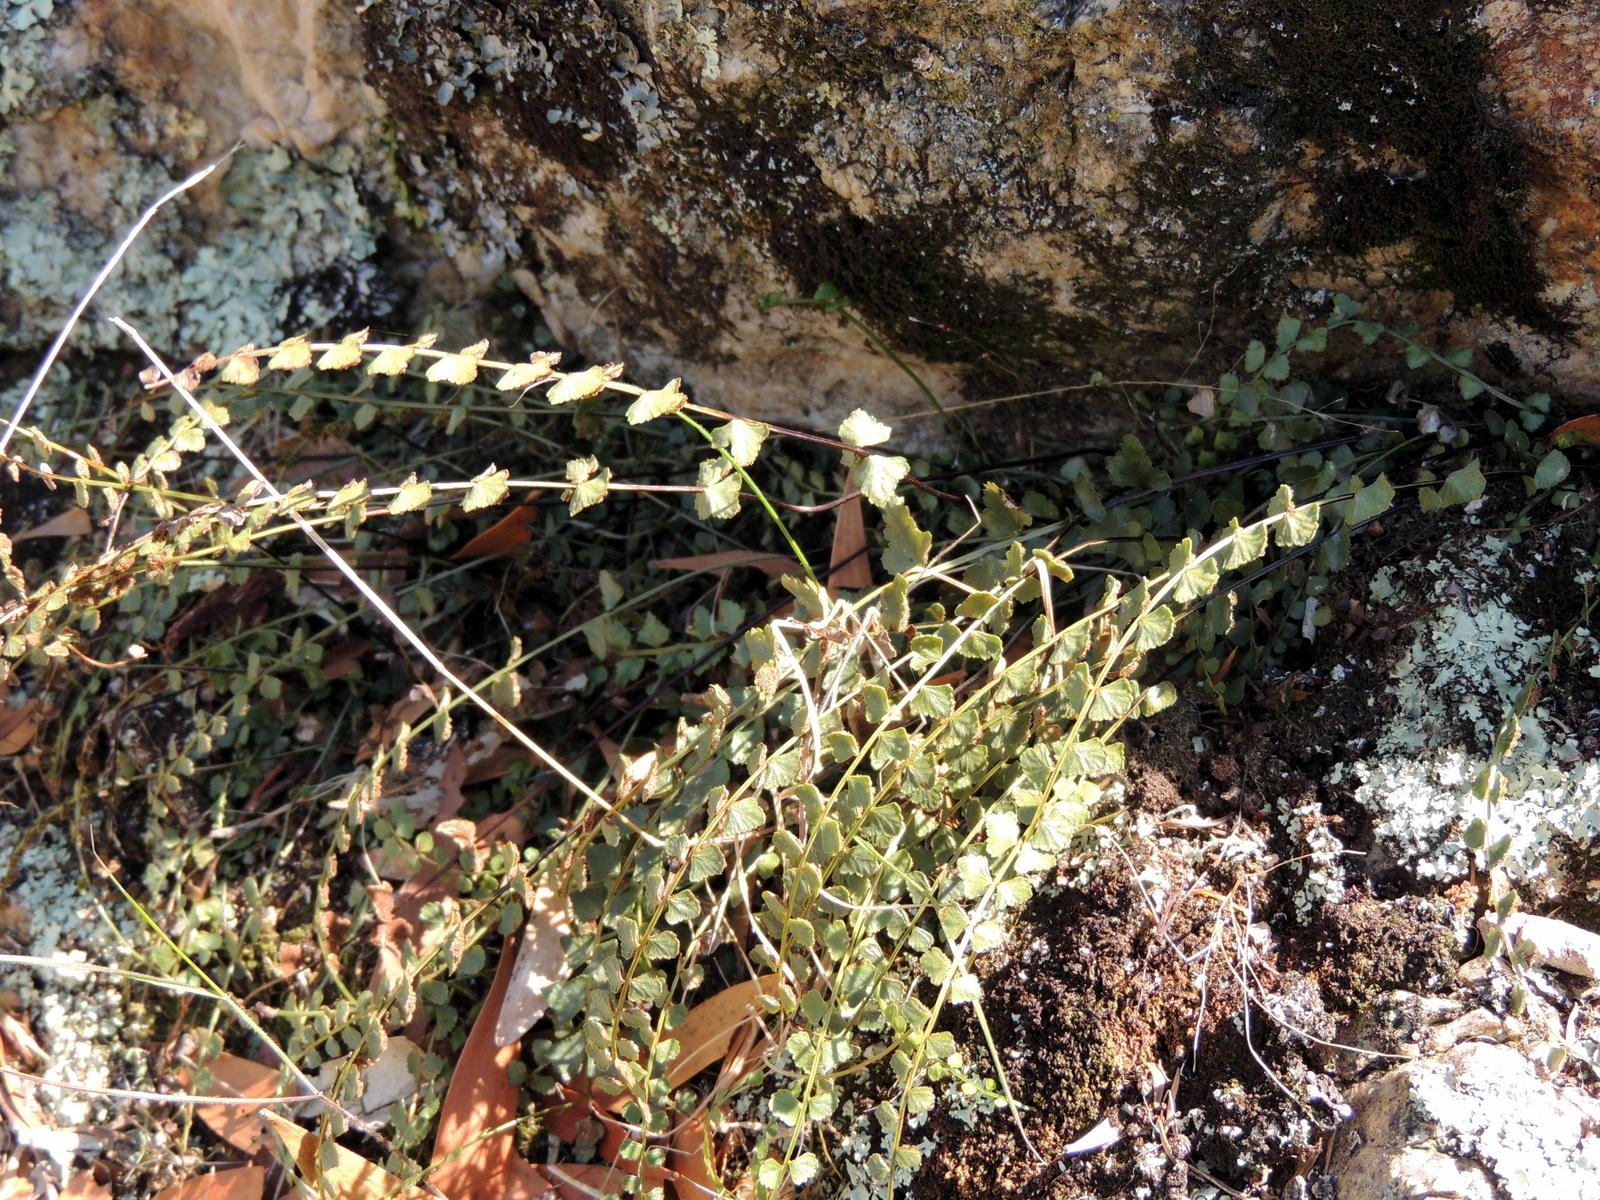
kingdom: Plantae
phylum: Tracheophyta
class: Polypodiopsida
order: Polypodiales
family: Aspleniaceae
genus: Asplenium
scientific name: Asplenium flabellifolium
